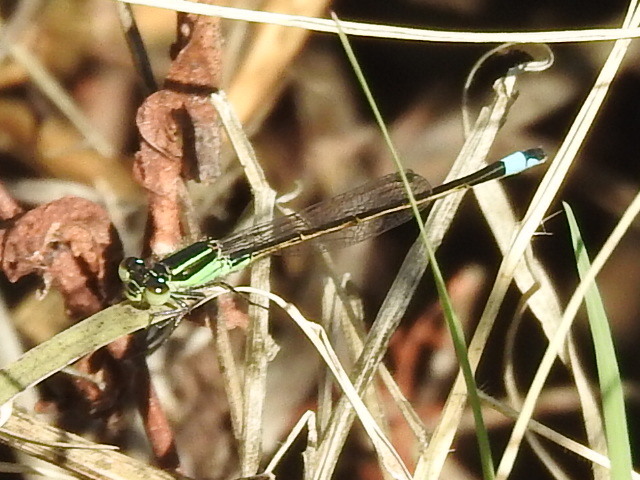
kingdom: Animalia
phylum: Arthropoda
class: Insecta
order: Odonata
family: Coenagrionidae
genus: Ischnura
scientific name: Ischnura ramburii
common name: Rambur's forktail
